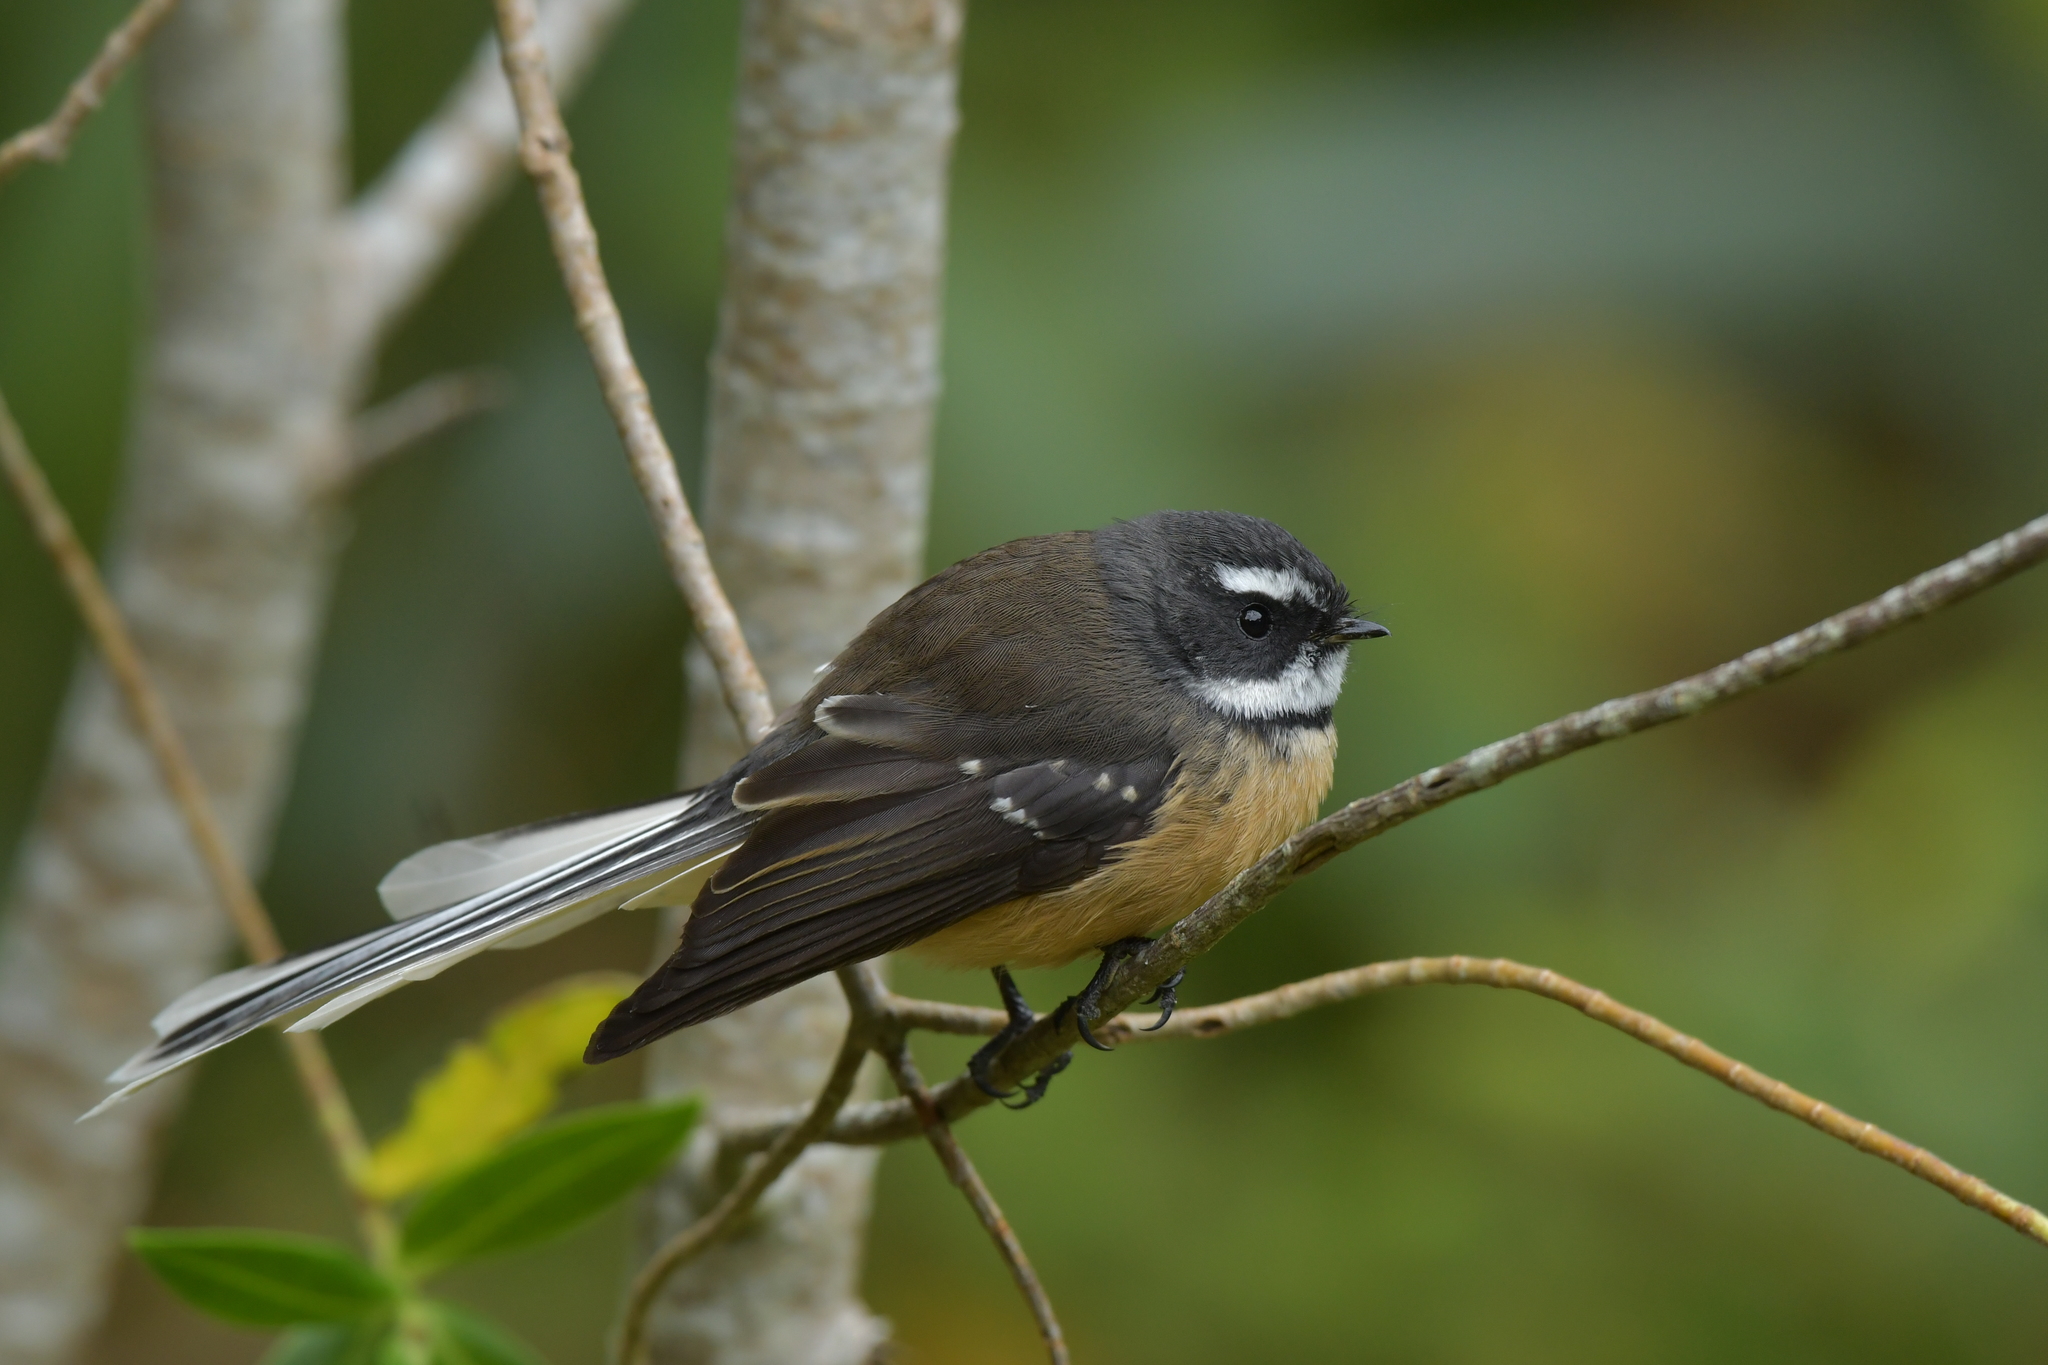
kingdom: Animalia
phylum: Chordata
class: Aves
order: Passeriformes
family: Rhipiduridae
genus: Rhipidura
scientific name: Rhipidura fuliginosa
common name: New zealand fantail
